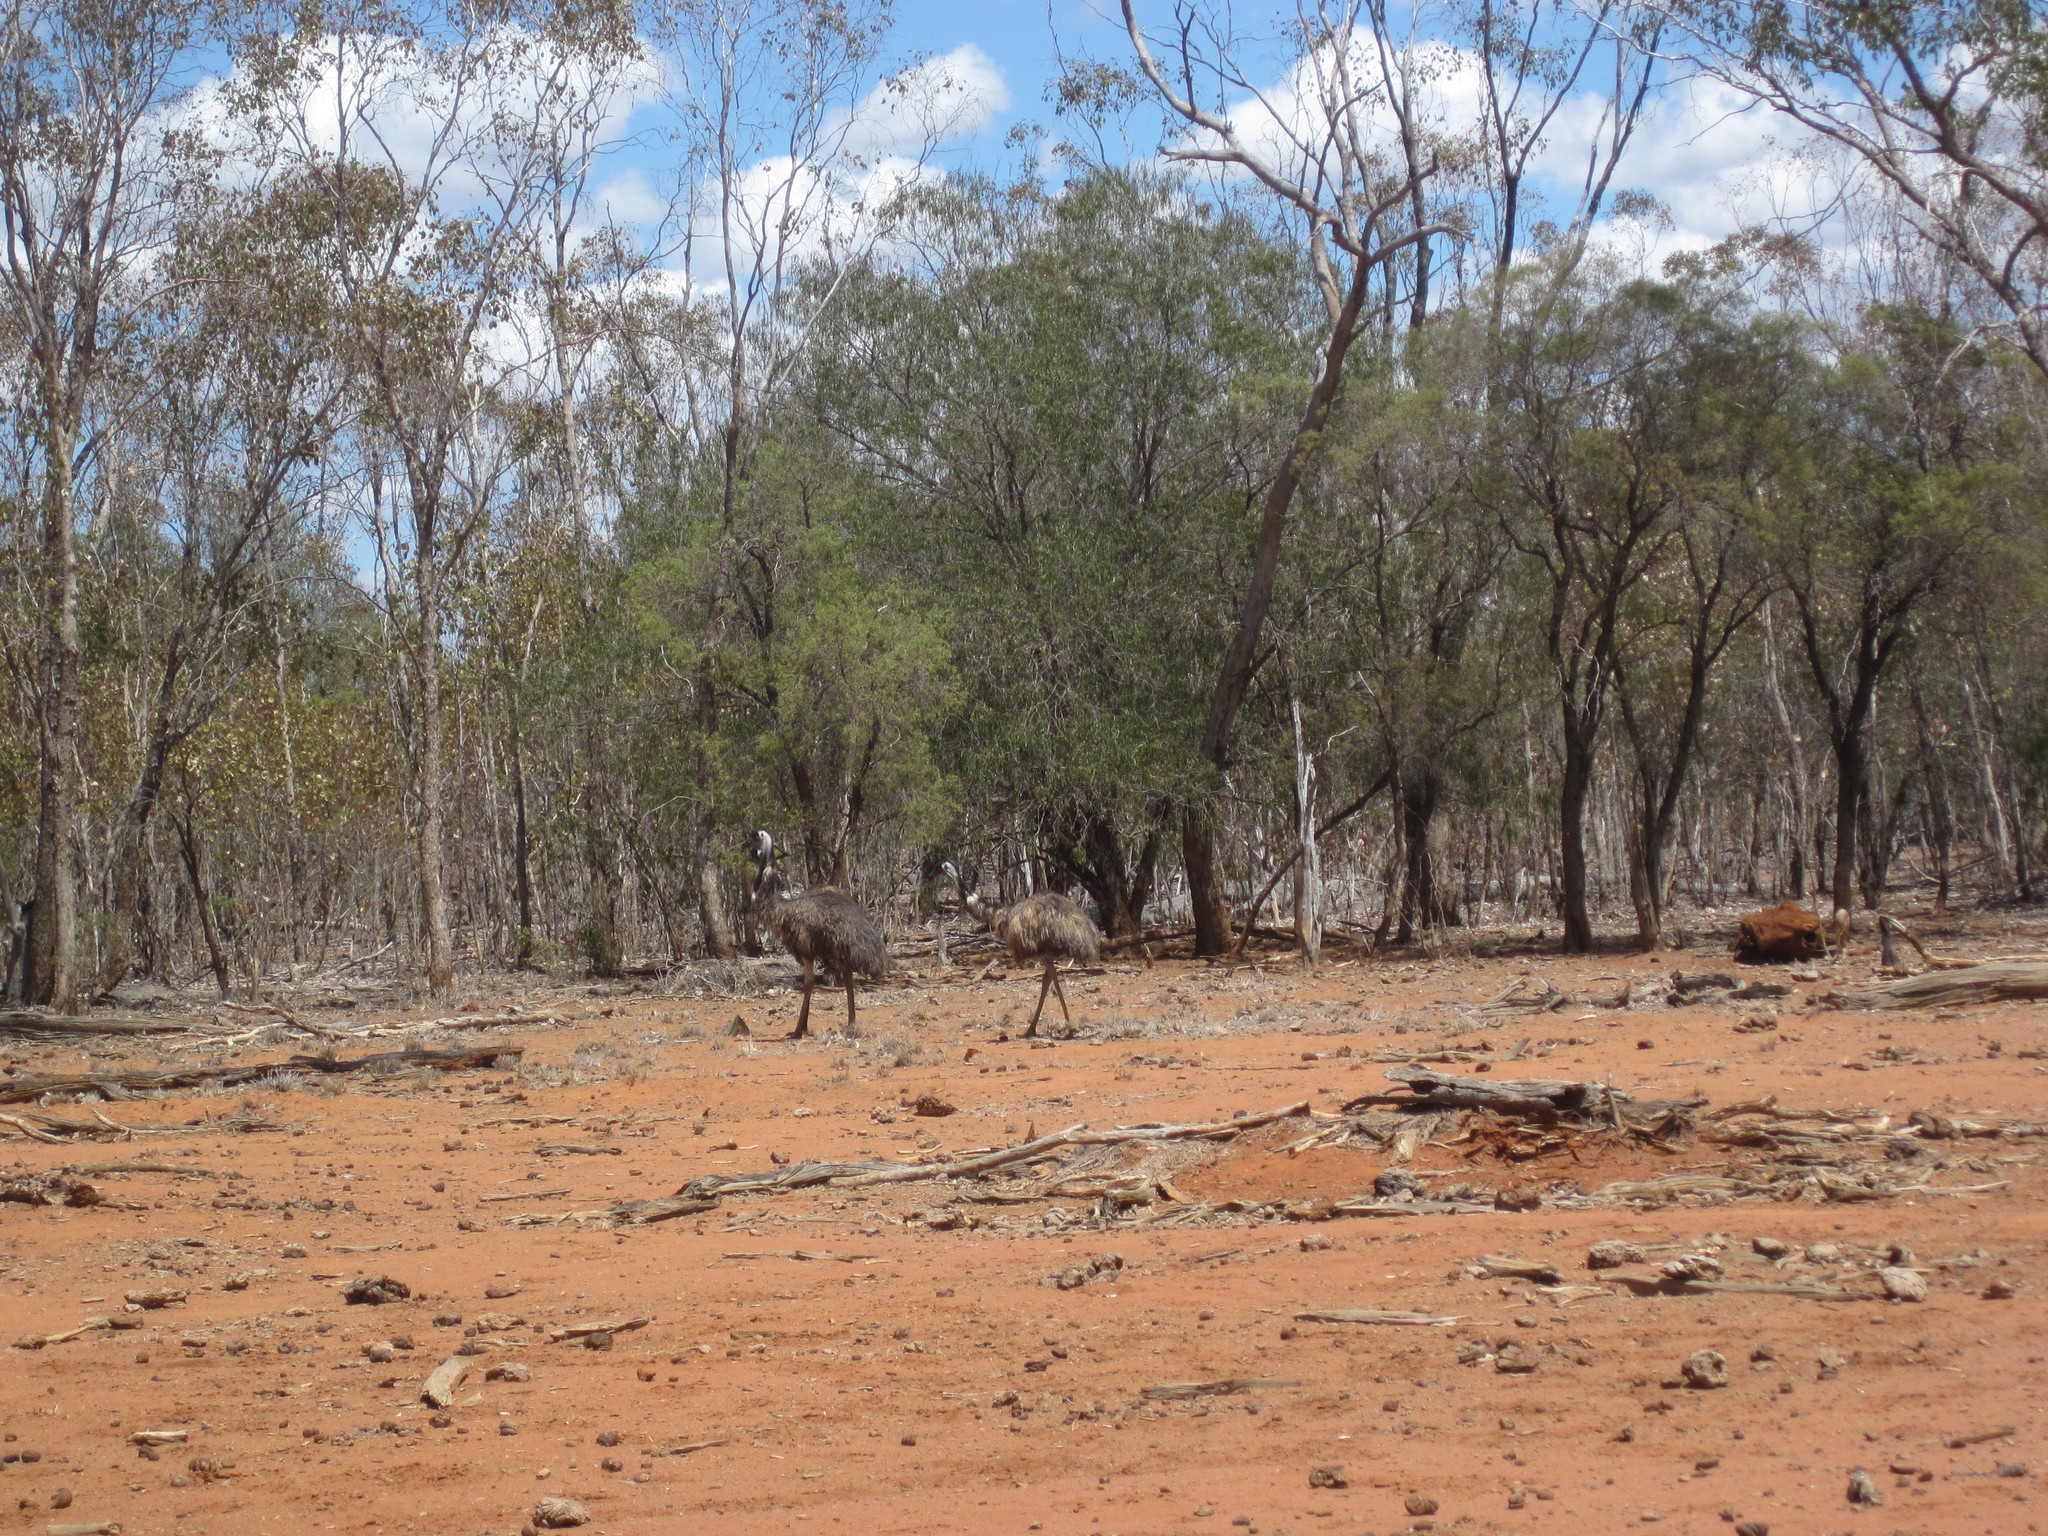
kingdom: Animalia
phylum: Chordata
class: Aves
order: Casuariiformes
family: Dromaiidae
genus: Dromaius
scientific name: Dromaius novaehollandiae
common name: Emu
